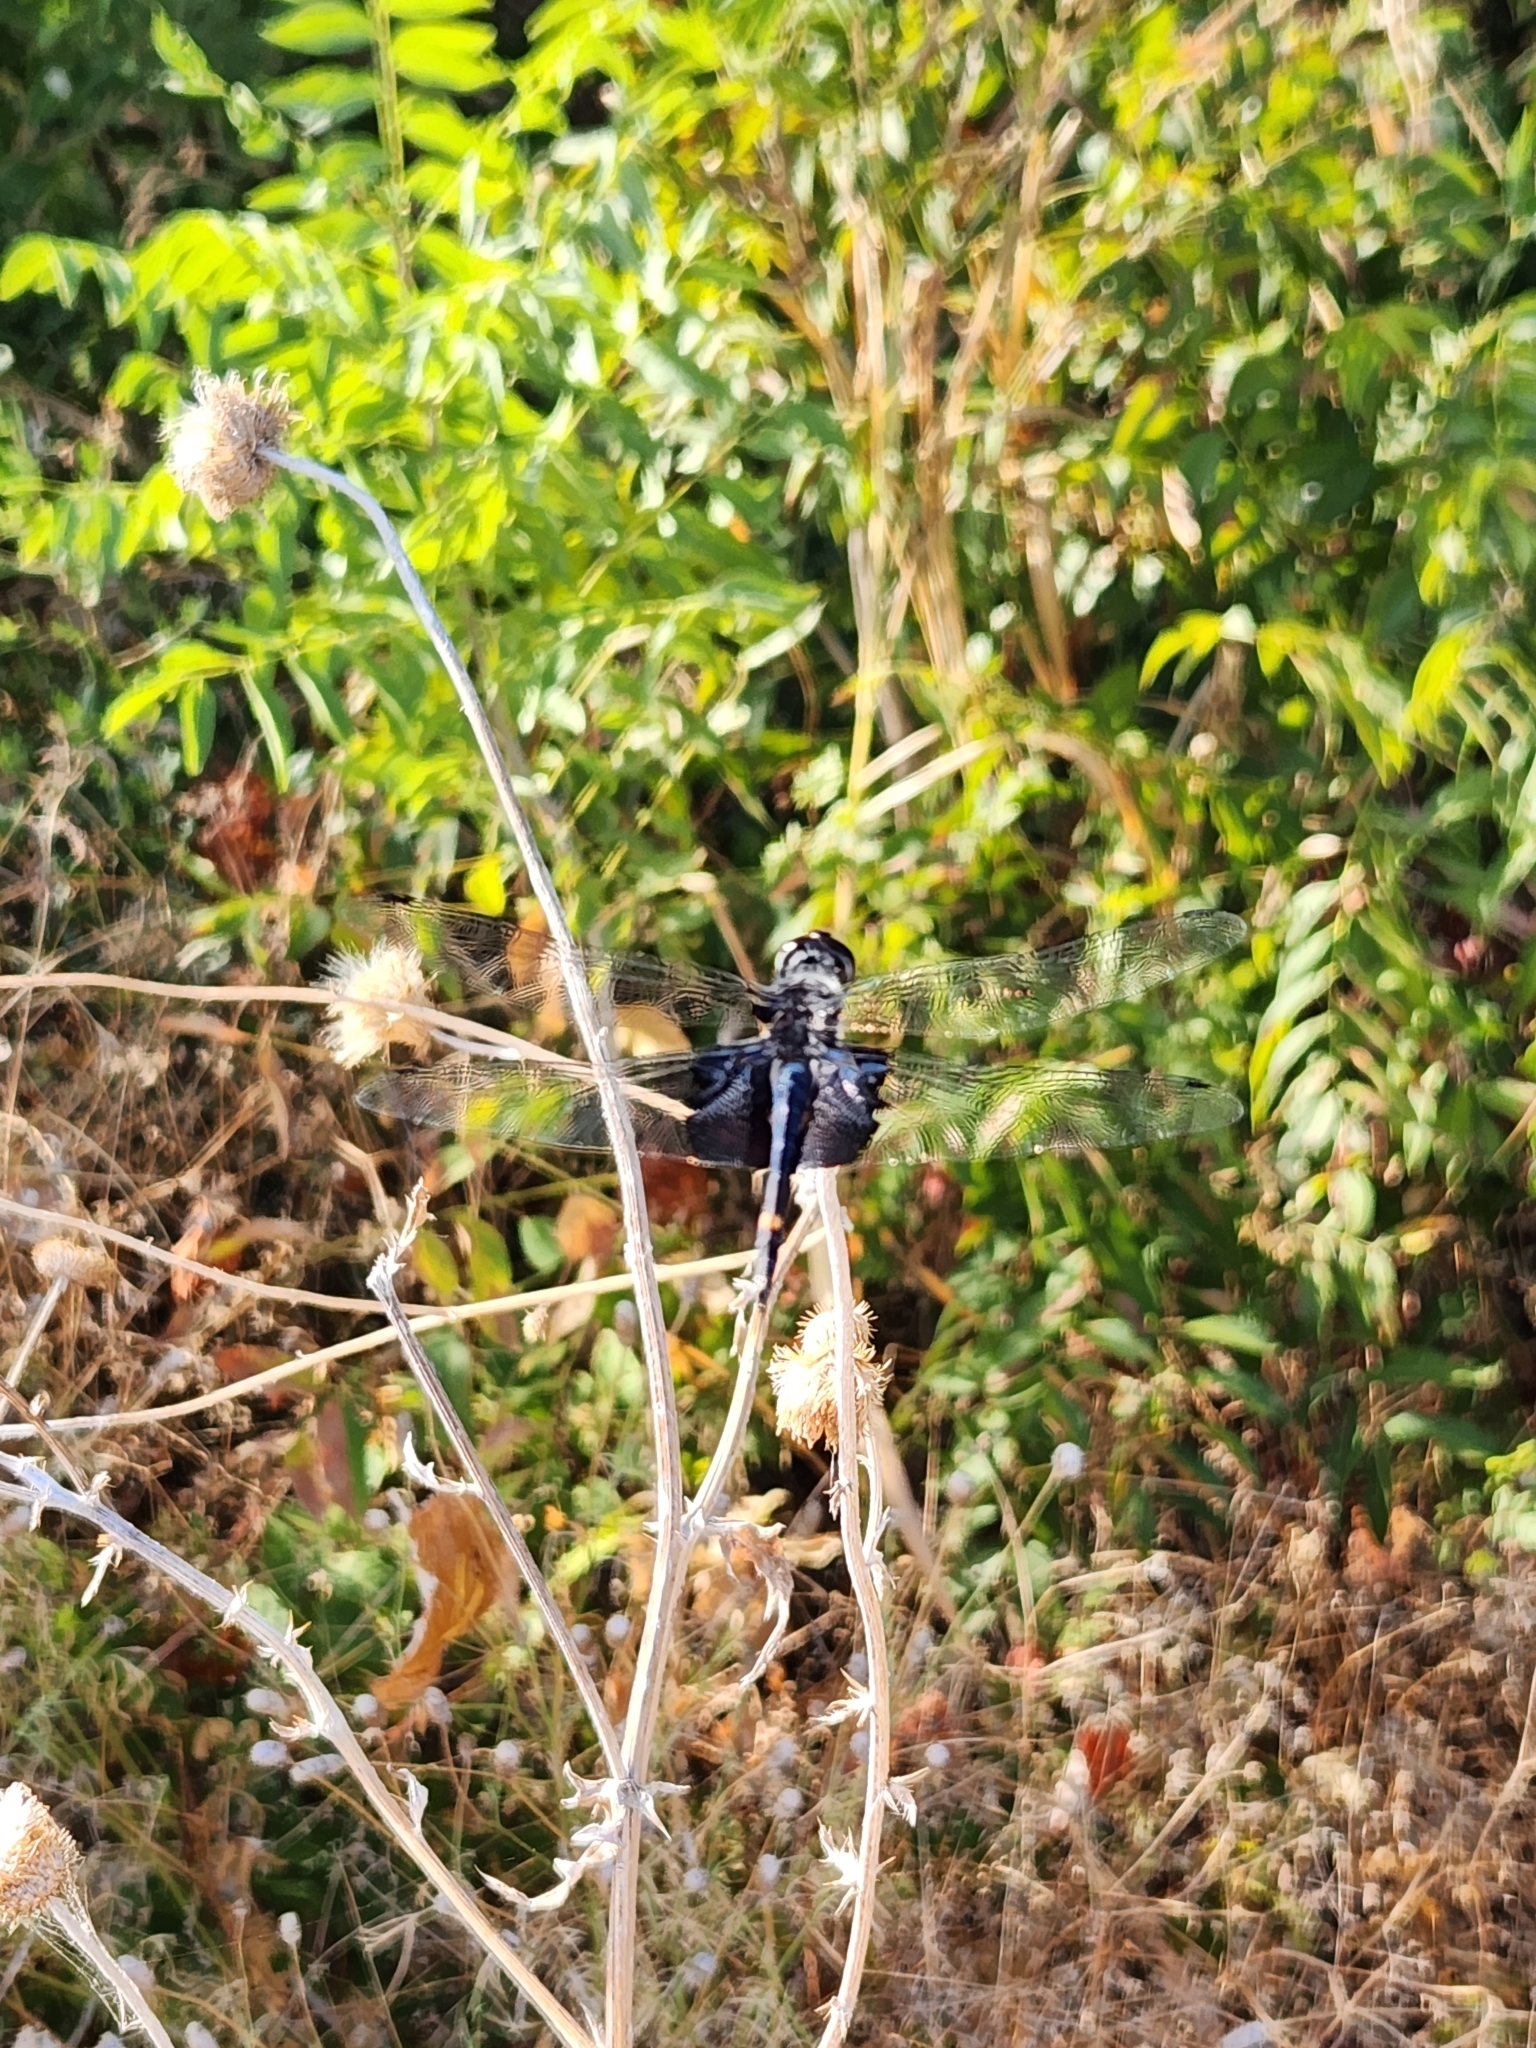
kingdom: Animalia
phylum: Arthropoda
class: Insecta
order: Odonata
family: Libellulidae
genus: Tramea
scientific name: Tramea lacerata
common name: Black saddlebags
